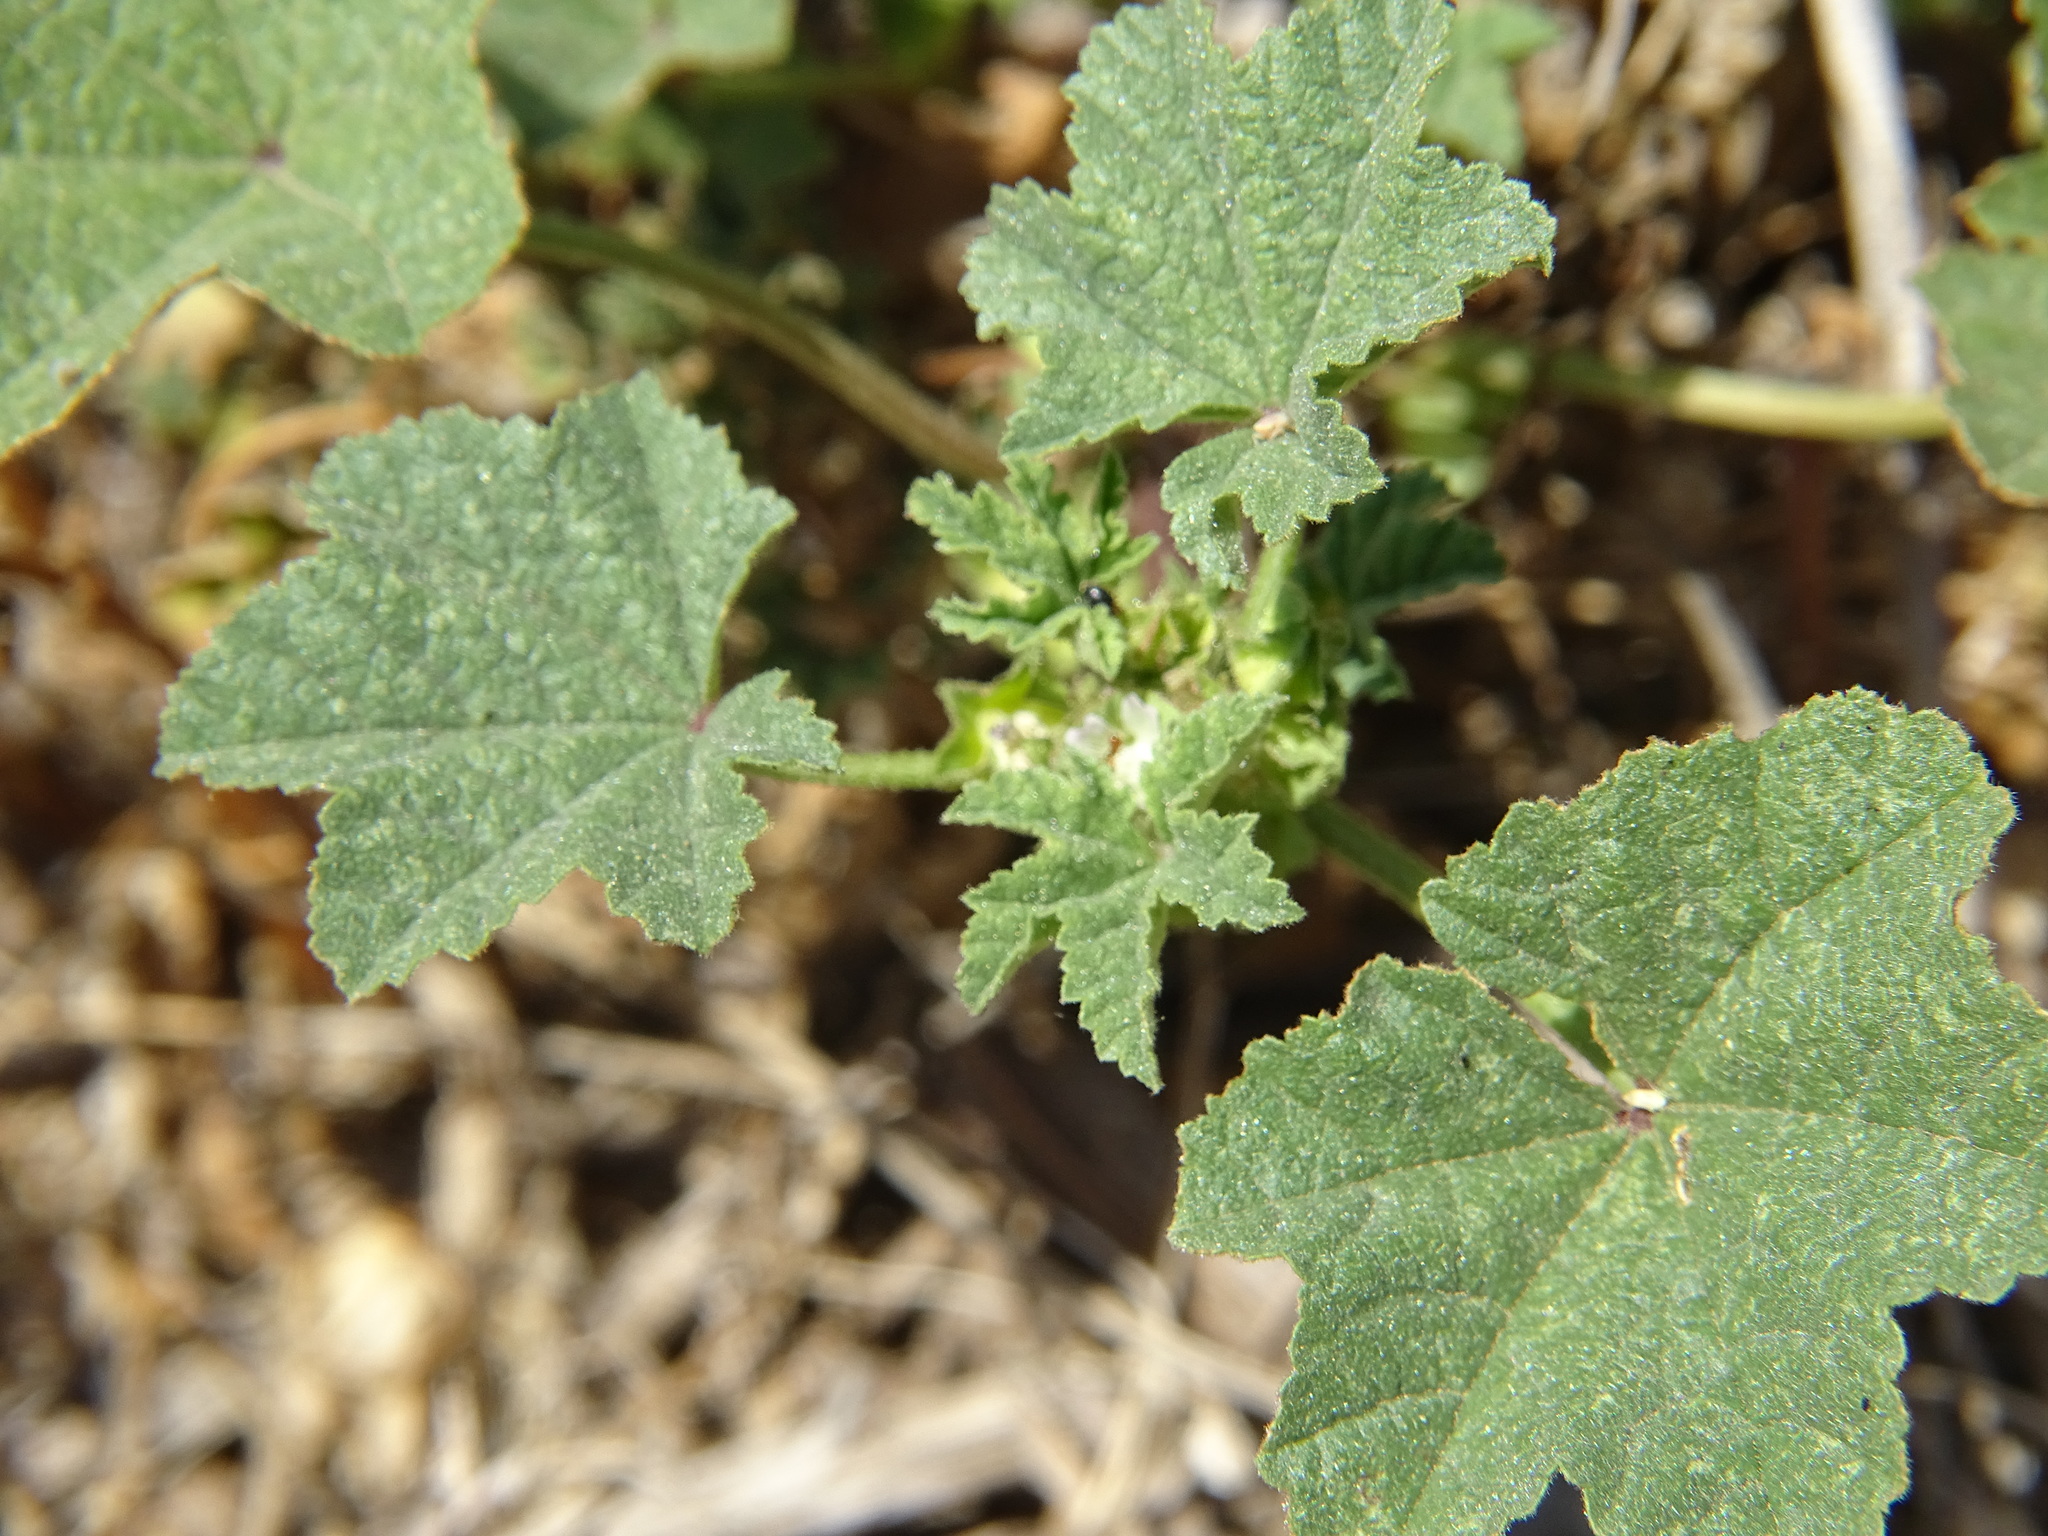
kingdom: Plantae
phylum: Tracheophyta
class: Magnoliopsida
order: Malvales
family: Malvaceae
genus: Malva
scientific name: Malva parviflora
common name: Least mallow
